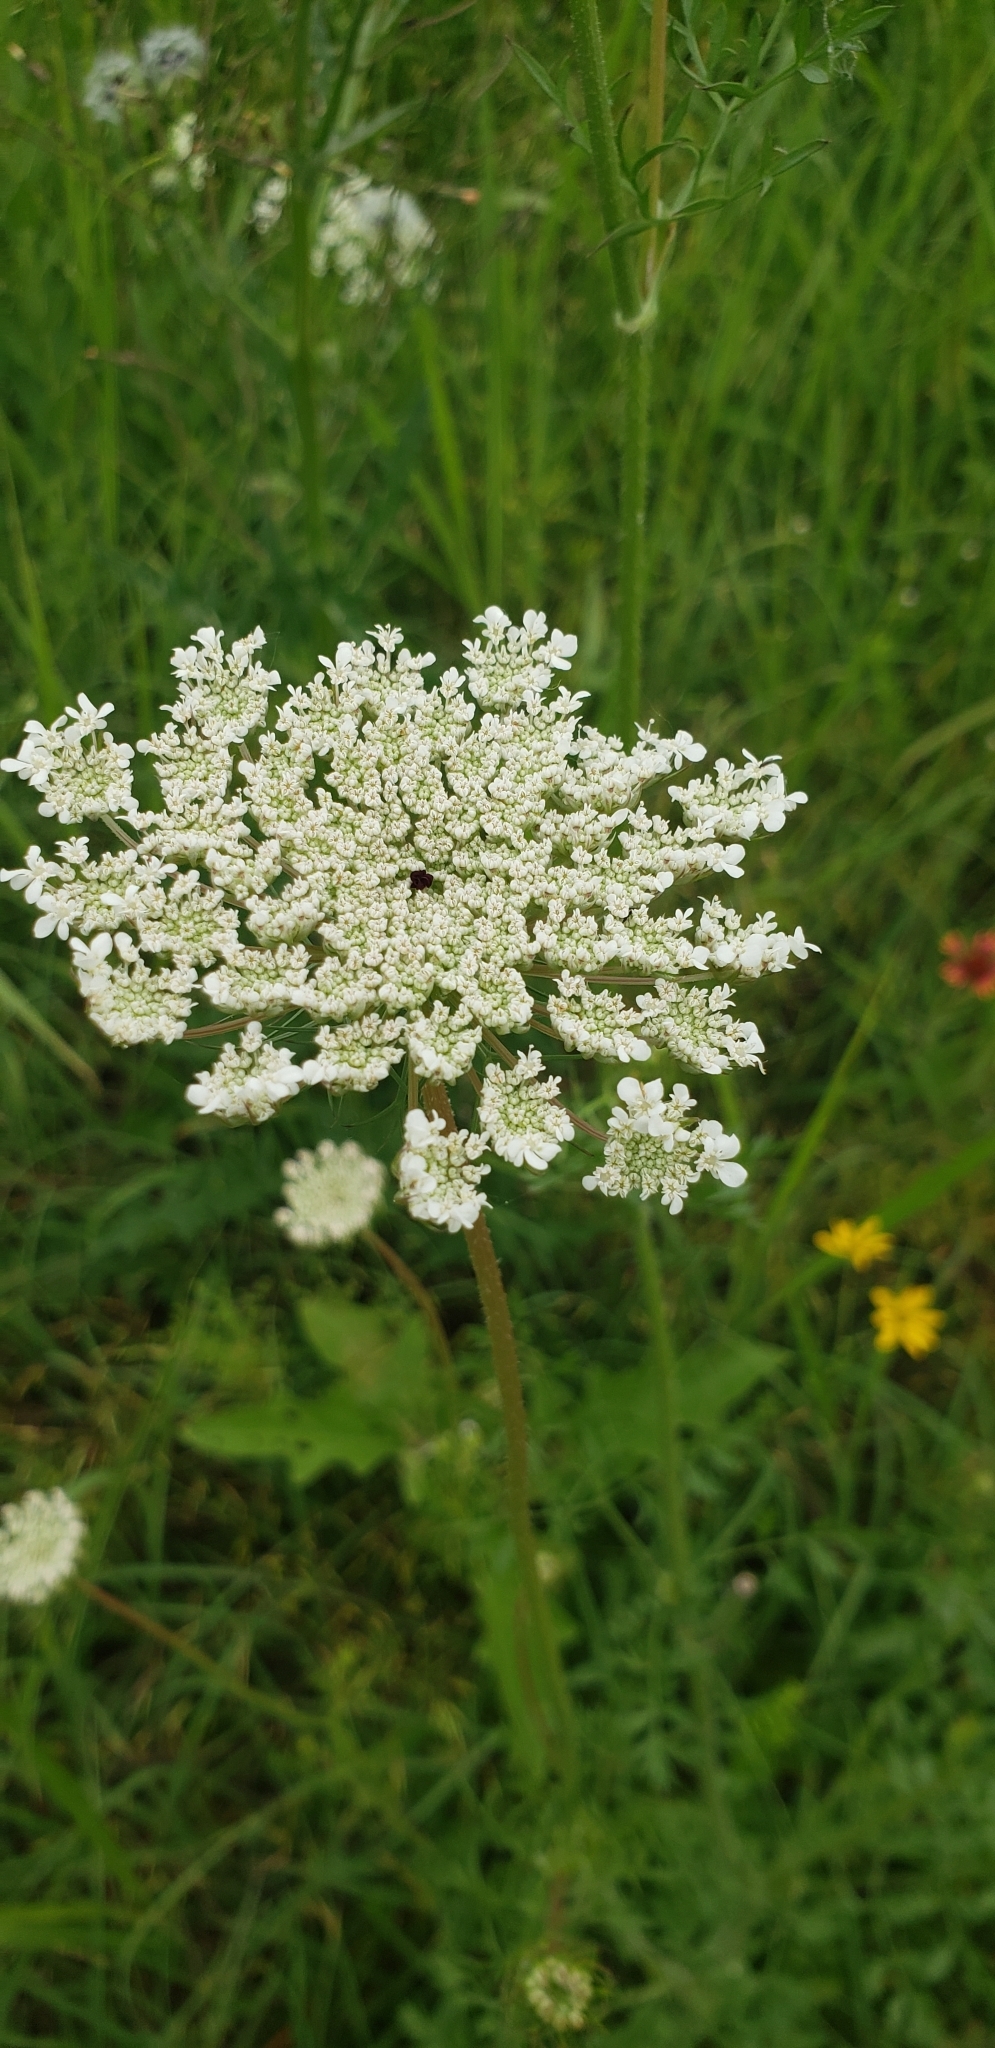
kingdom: Plantae
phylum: Tracheophyta
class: Magnoliopsida
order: Apiales
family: Apiaceae
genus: Daucus
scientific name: Daucus carota
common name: Wild carrot
